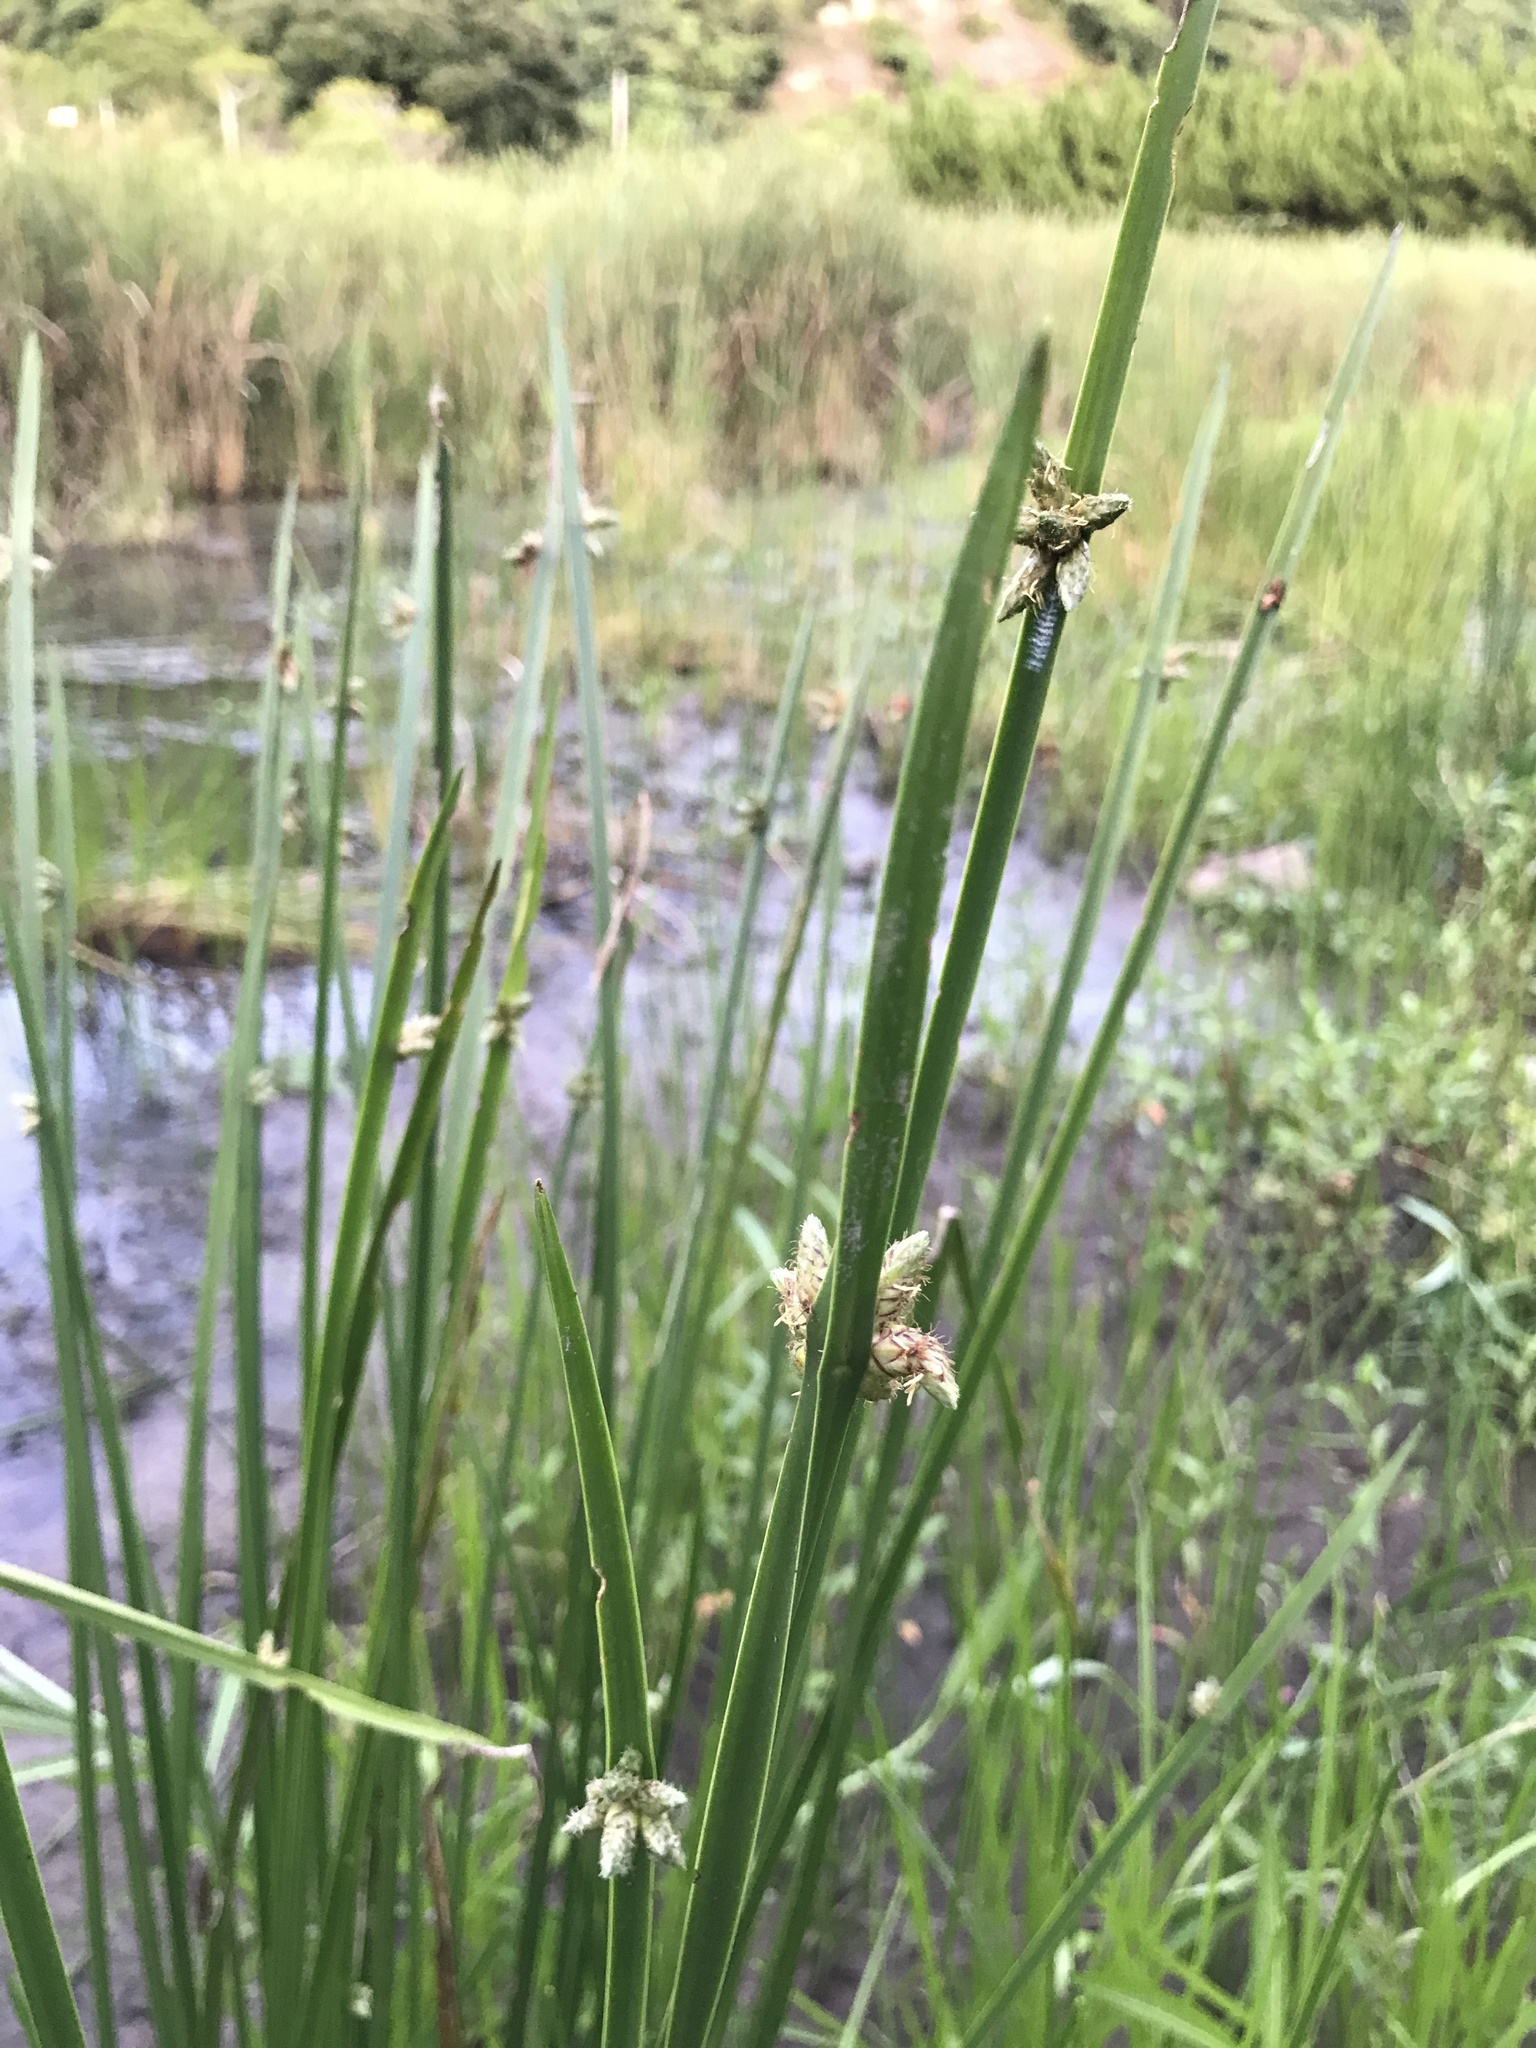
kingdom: Plantae
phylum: Tracheophyta
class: Liliopsida
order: Poales
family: Cyperaceae
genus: Schoenoplectiella
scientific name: Schoenoplectiella triangulata
